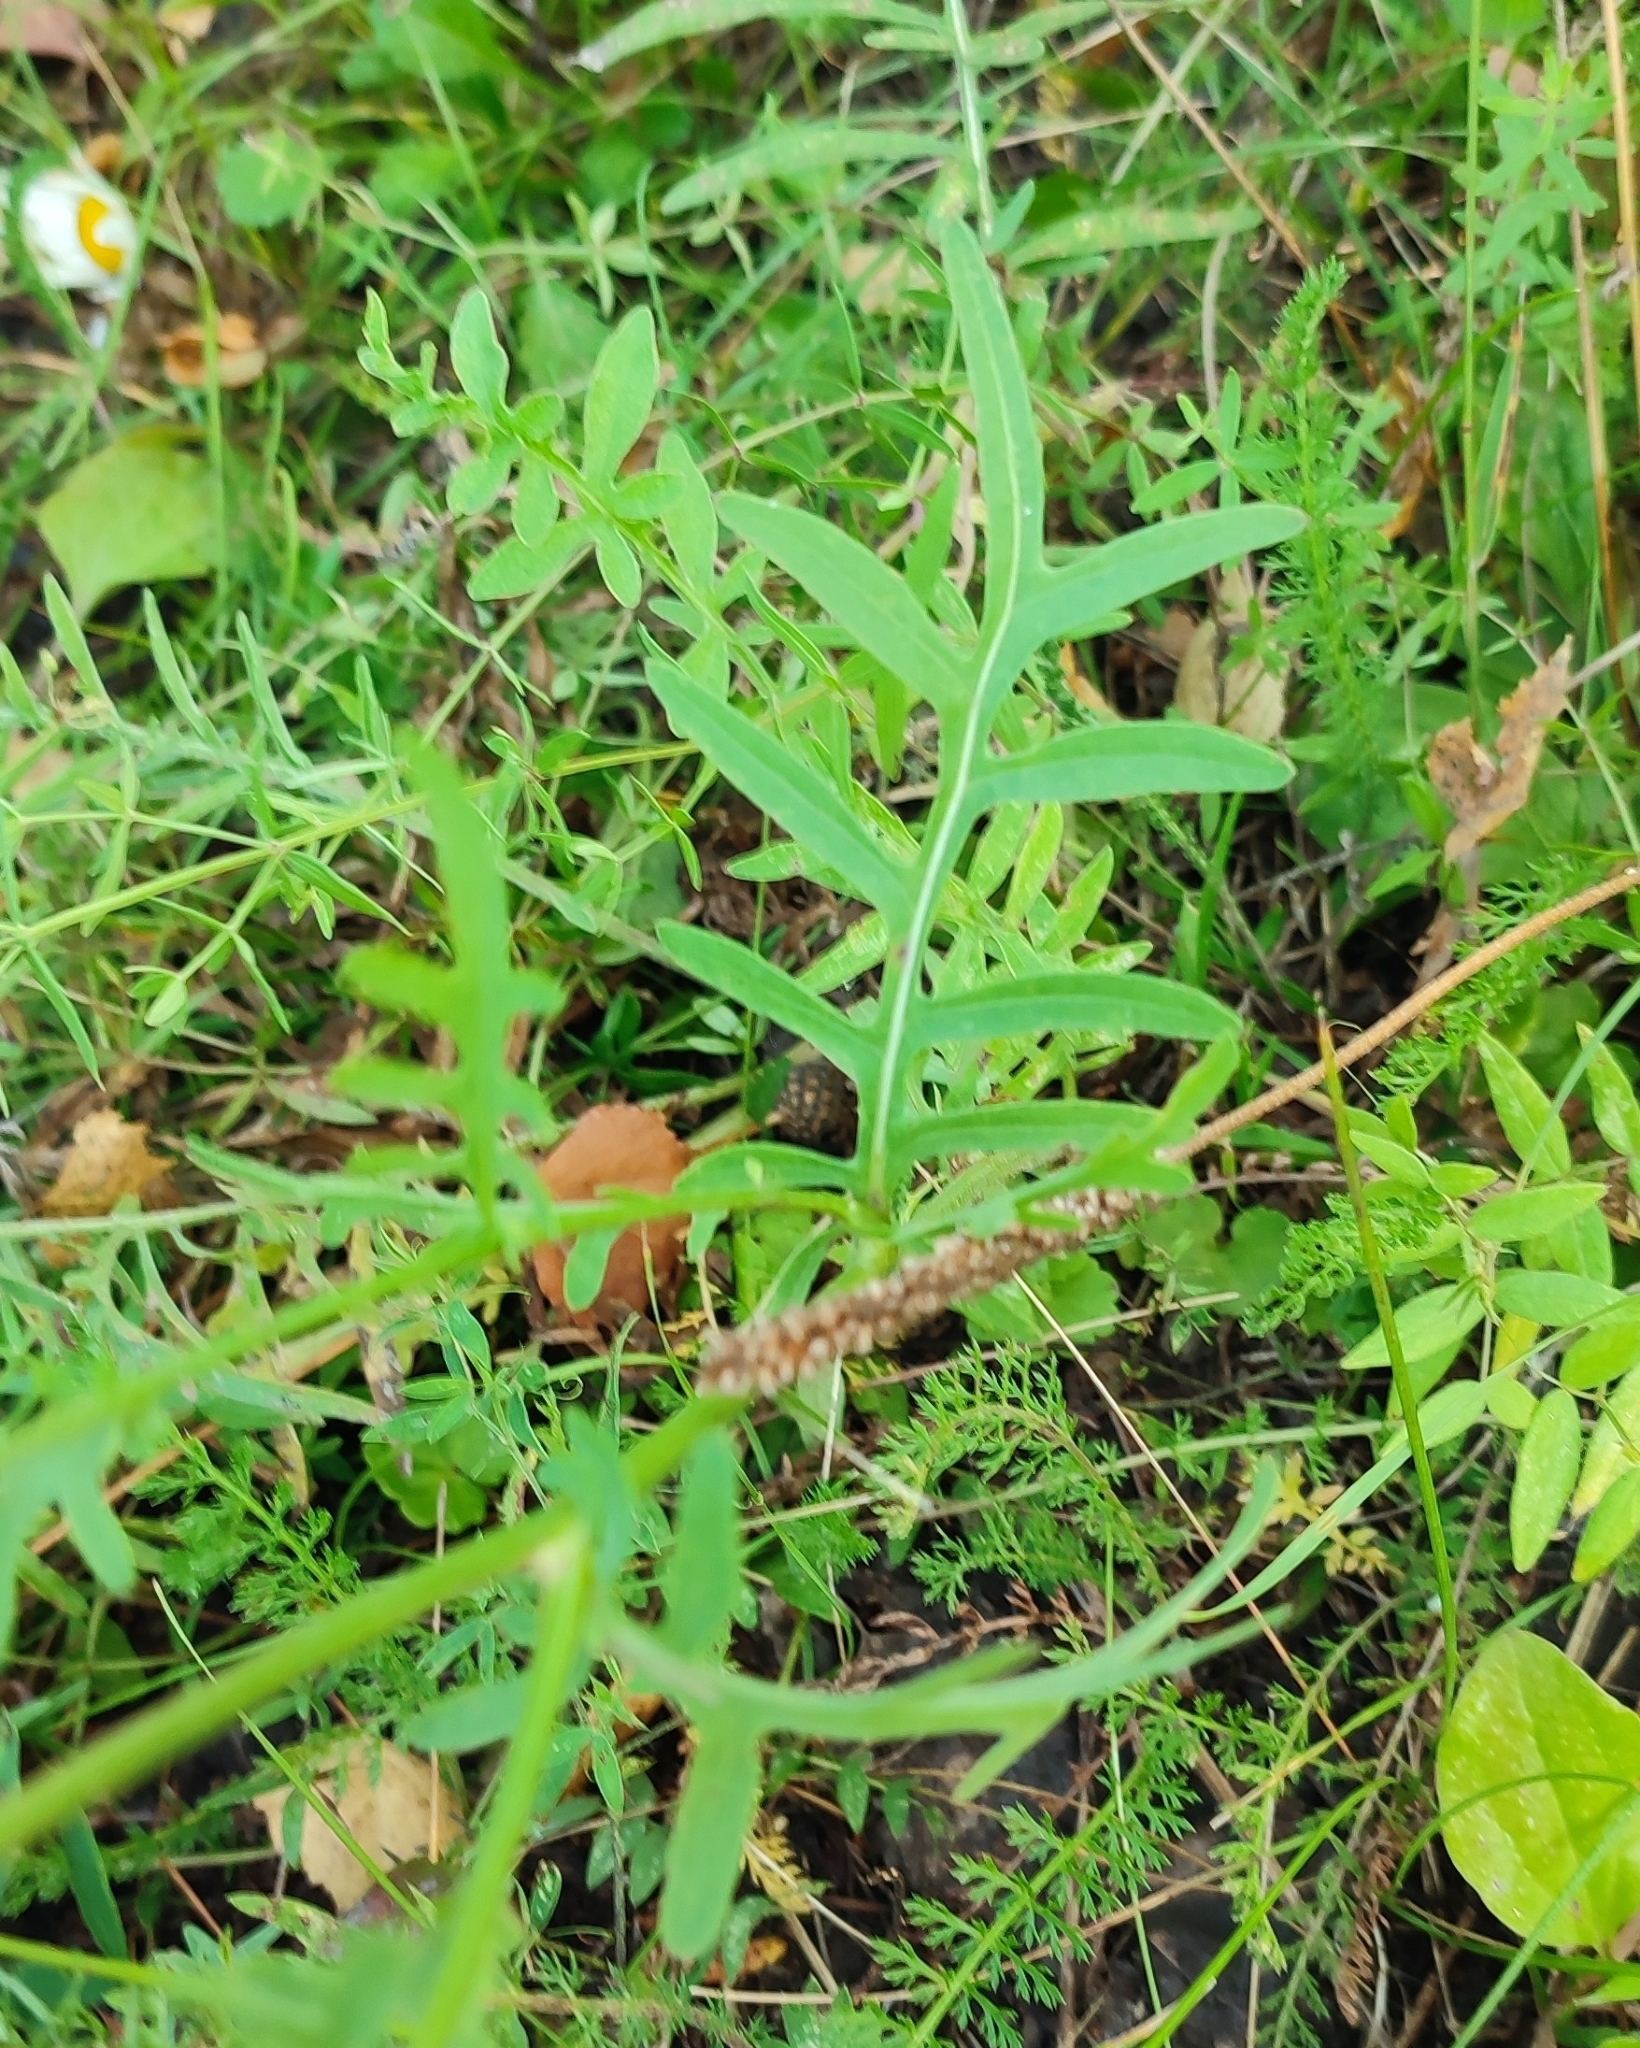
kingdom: Plantae
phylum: Tracheophyta
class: Magnoliopsida
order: Asterales
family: Asteraceae
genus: Centaurea
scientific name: Centaurea scabiosa
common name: Greater knapweed
